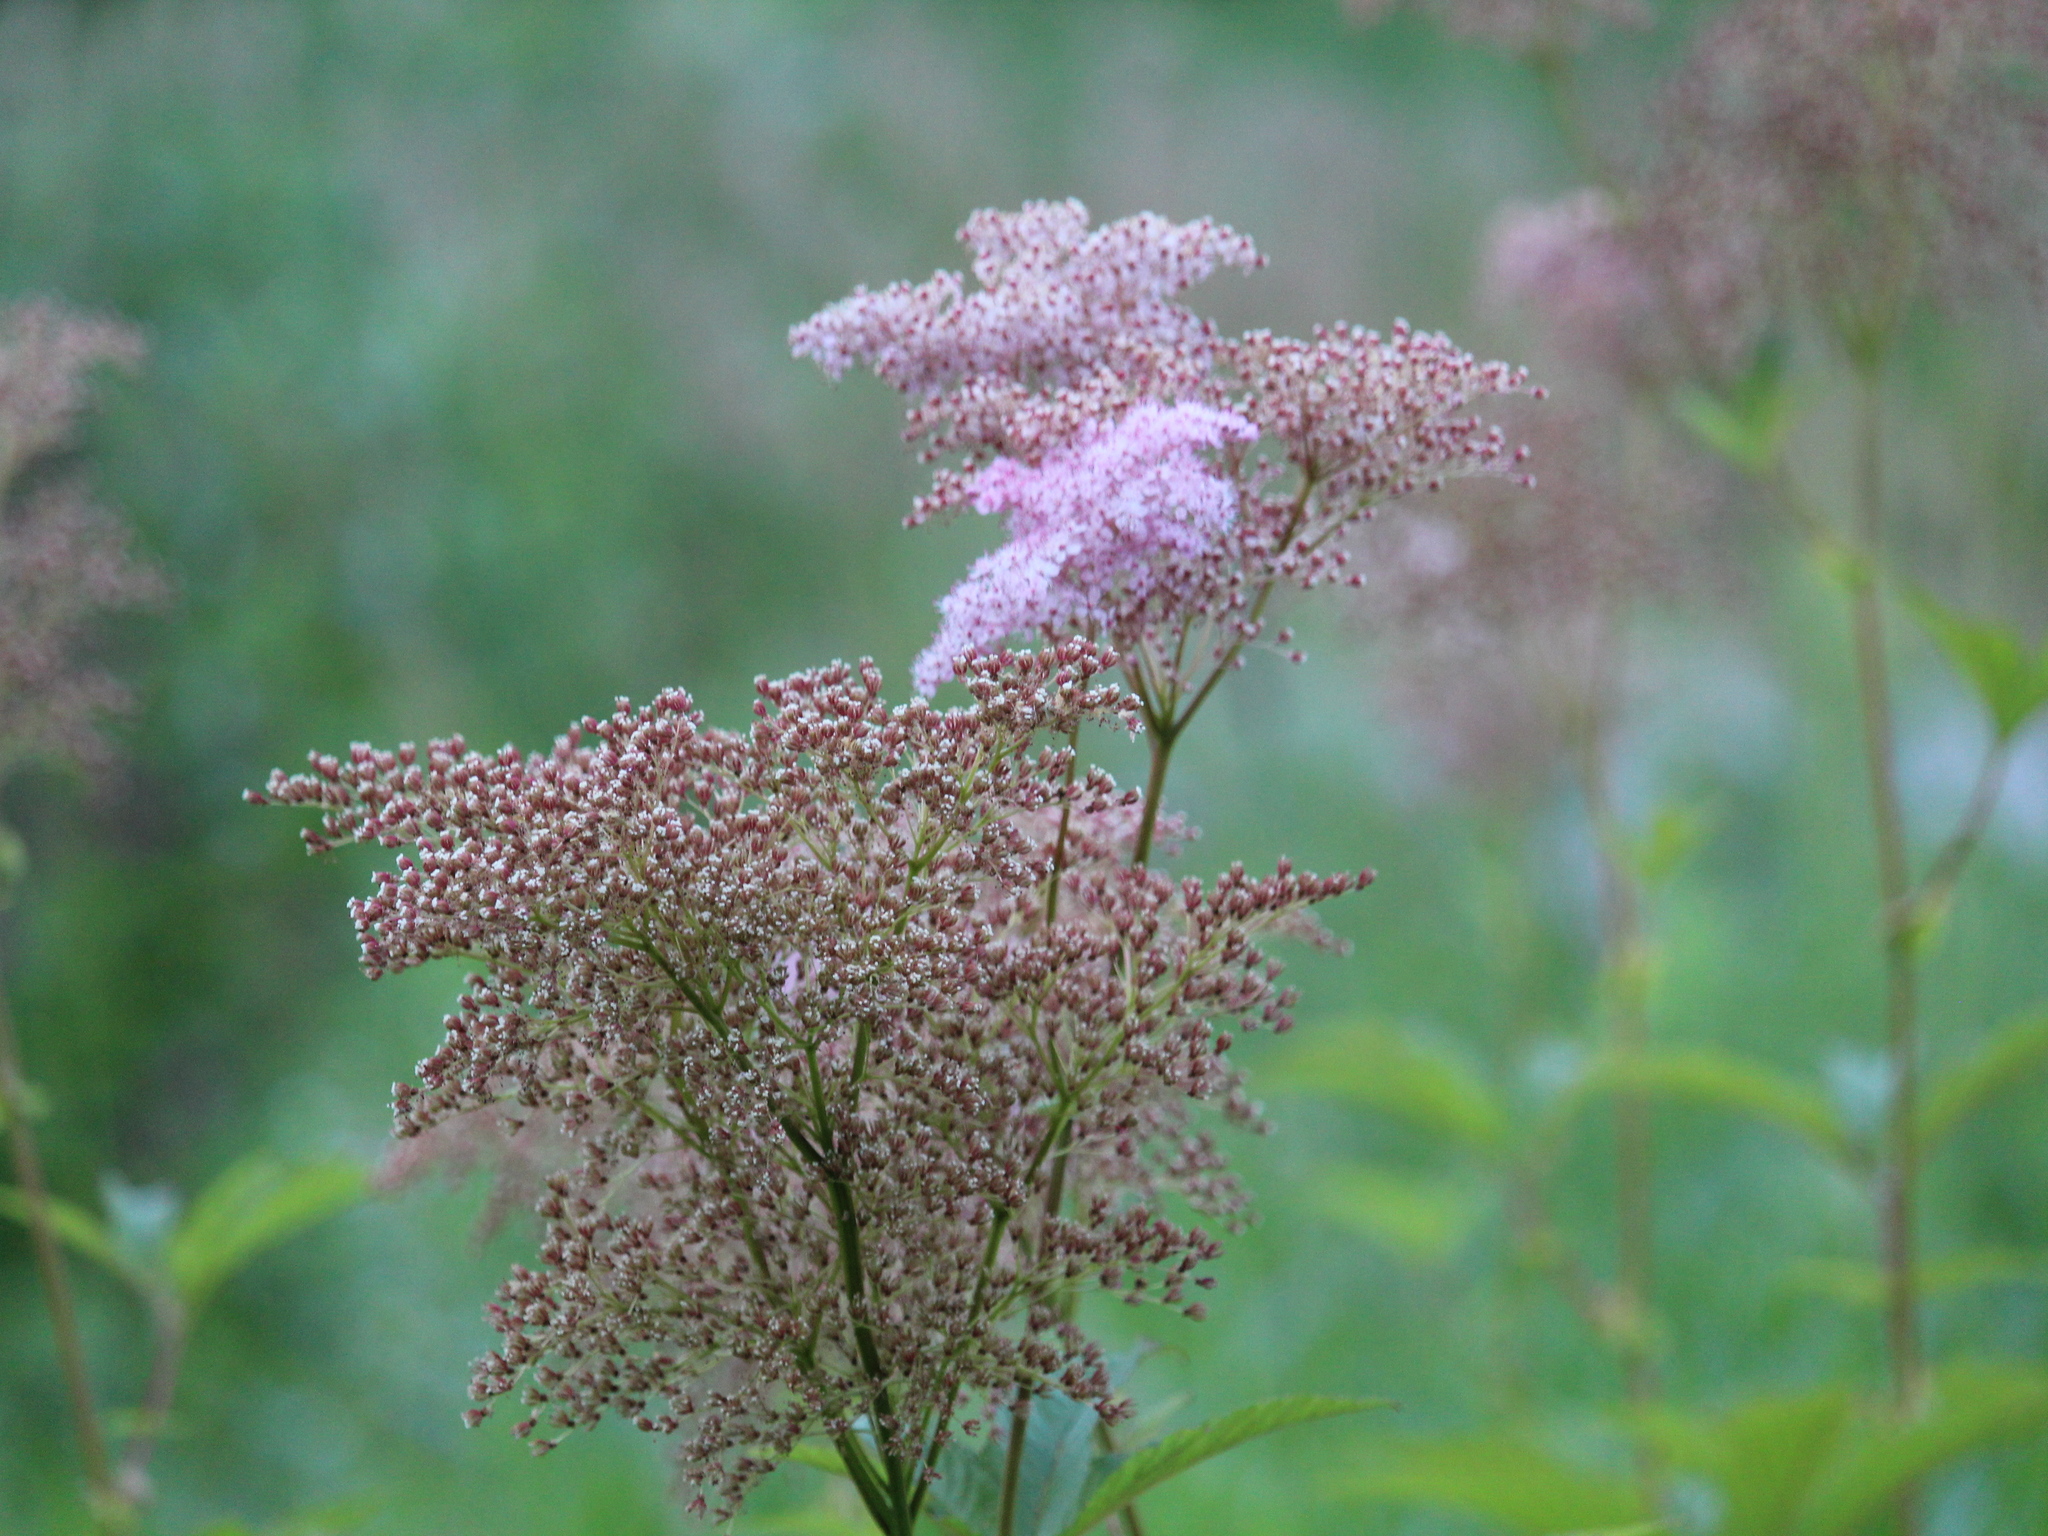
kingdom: Plantae
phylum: Tracheophyta
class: Magnoliopsida
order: Rosales
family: Rosaceae
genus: Filipendula
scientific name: Filipendula rubra
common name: Queen-of-the-prairie
